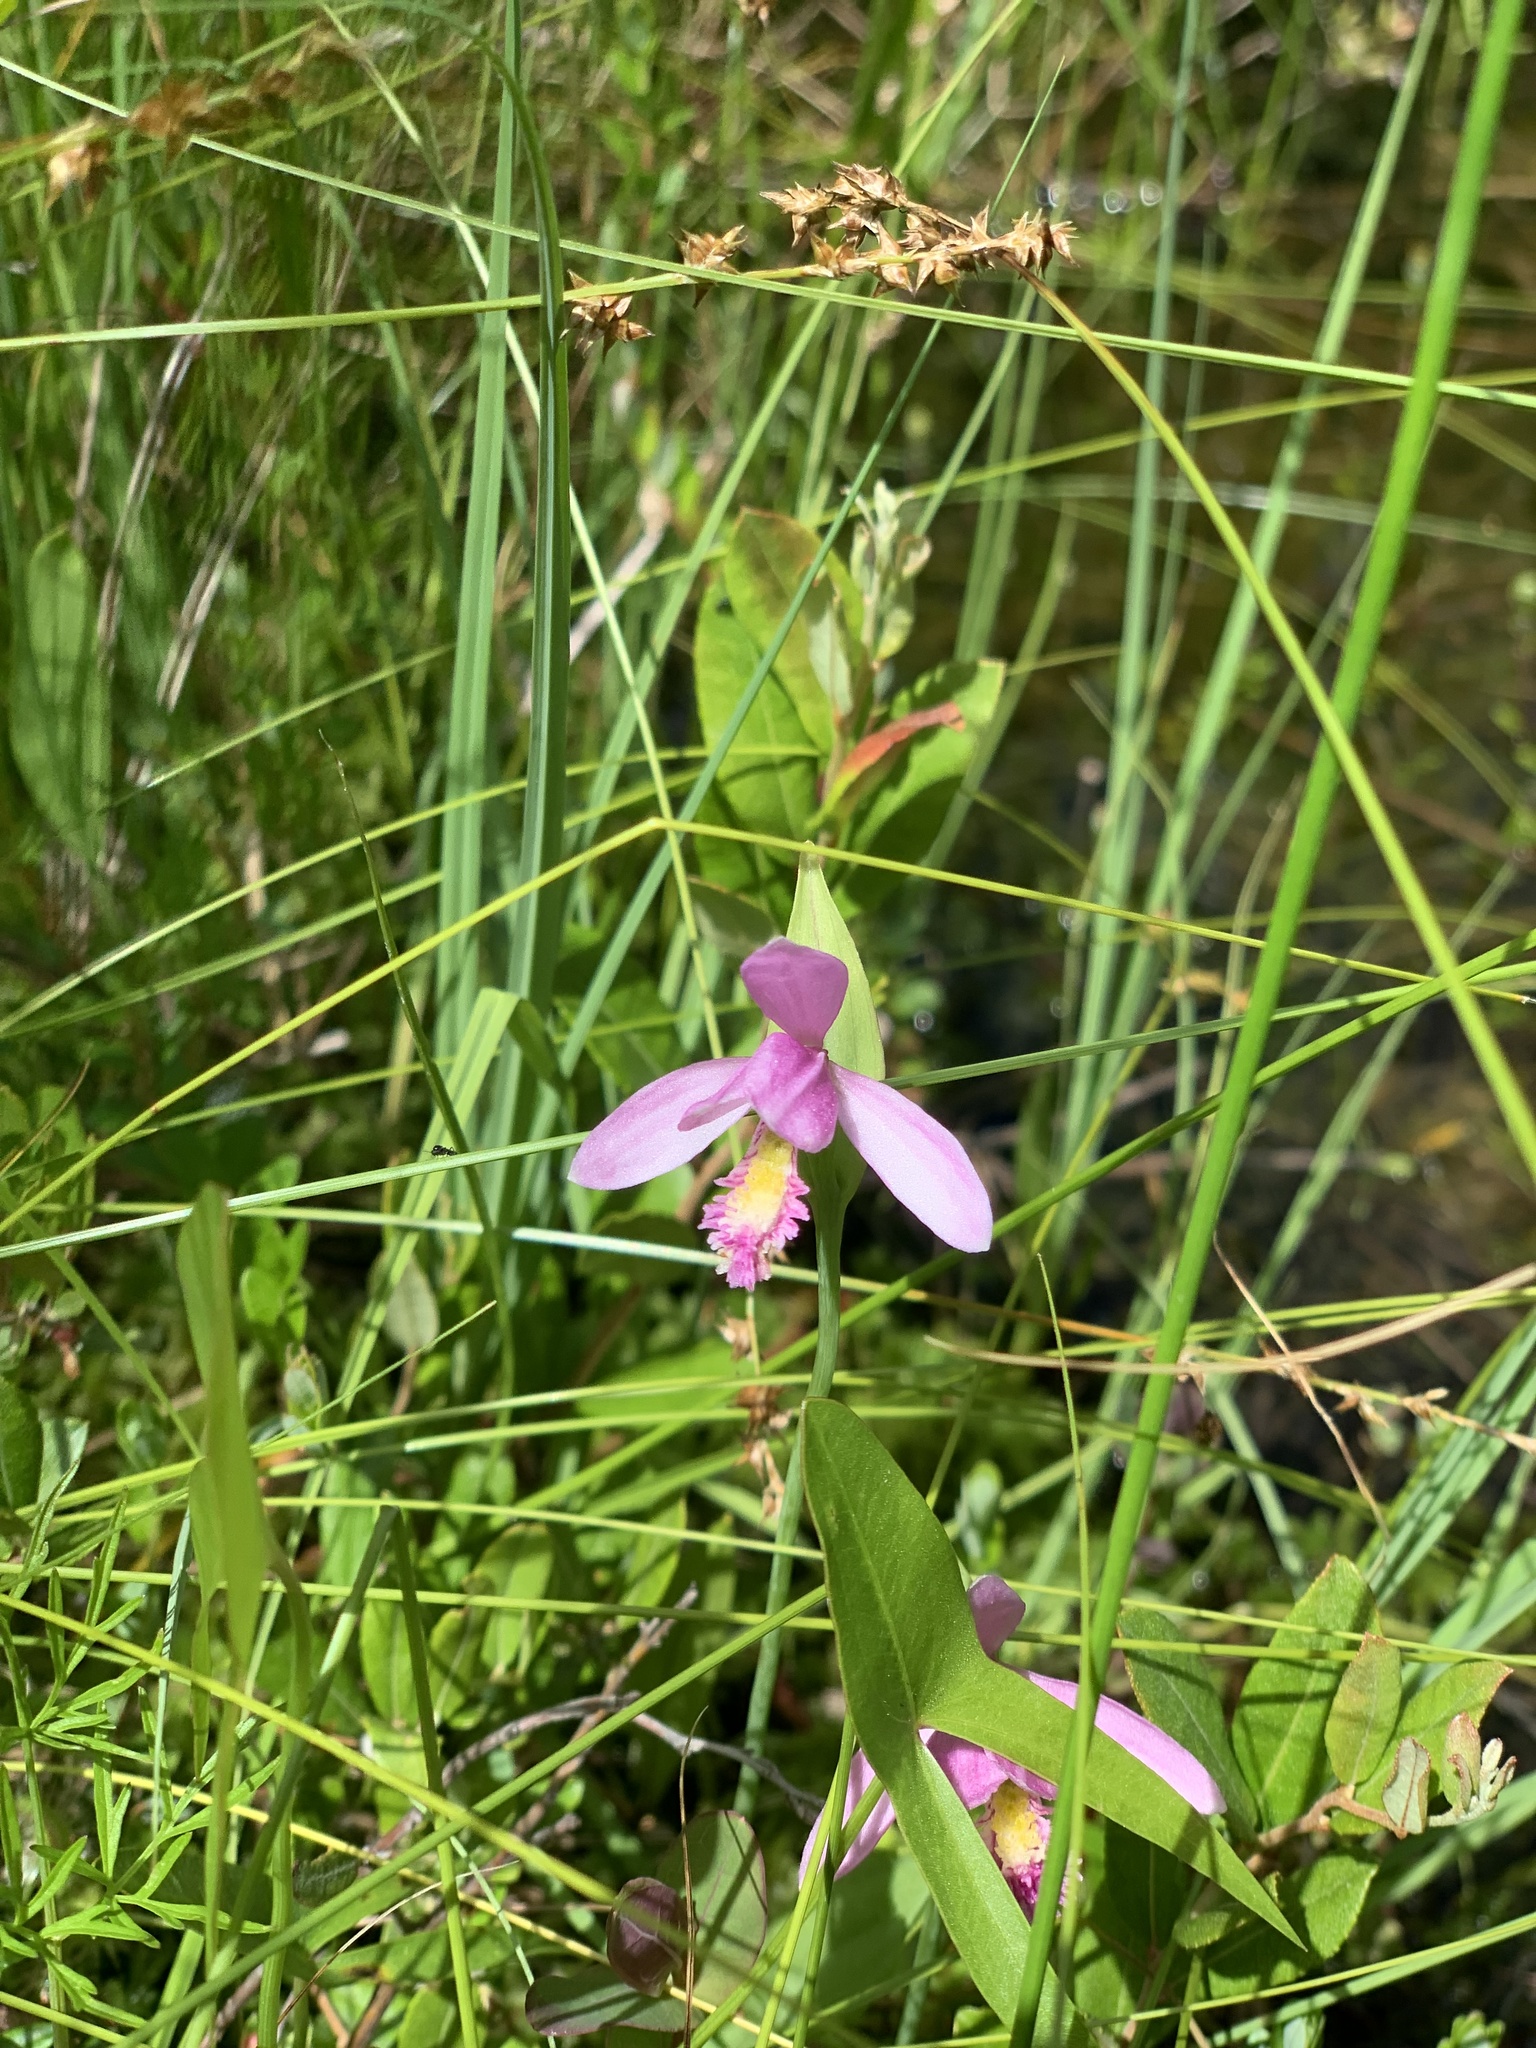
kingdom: Plantae
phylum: Tracheophyta
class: Liliopsida
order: Asparagales
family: Orchidaceae
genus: Pogonia
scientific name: Pogonia ophioglossoides
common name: Rose pogonia
